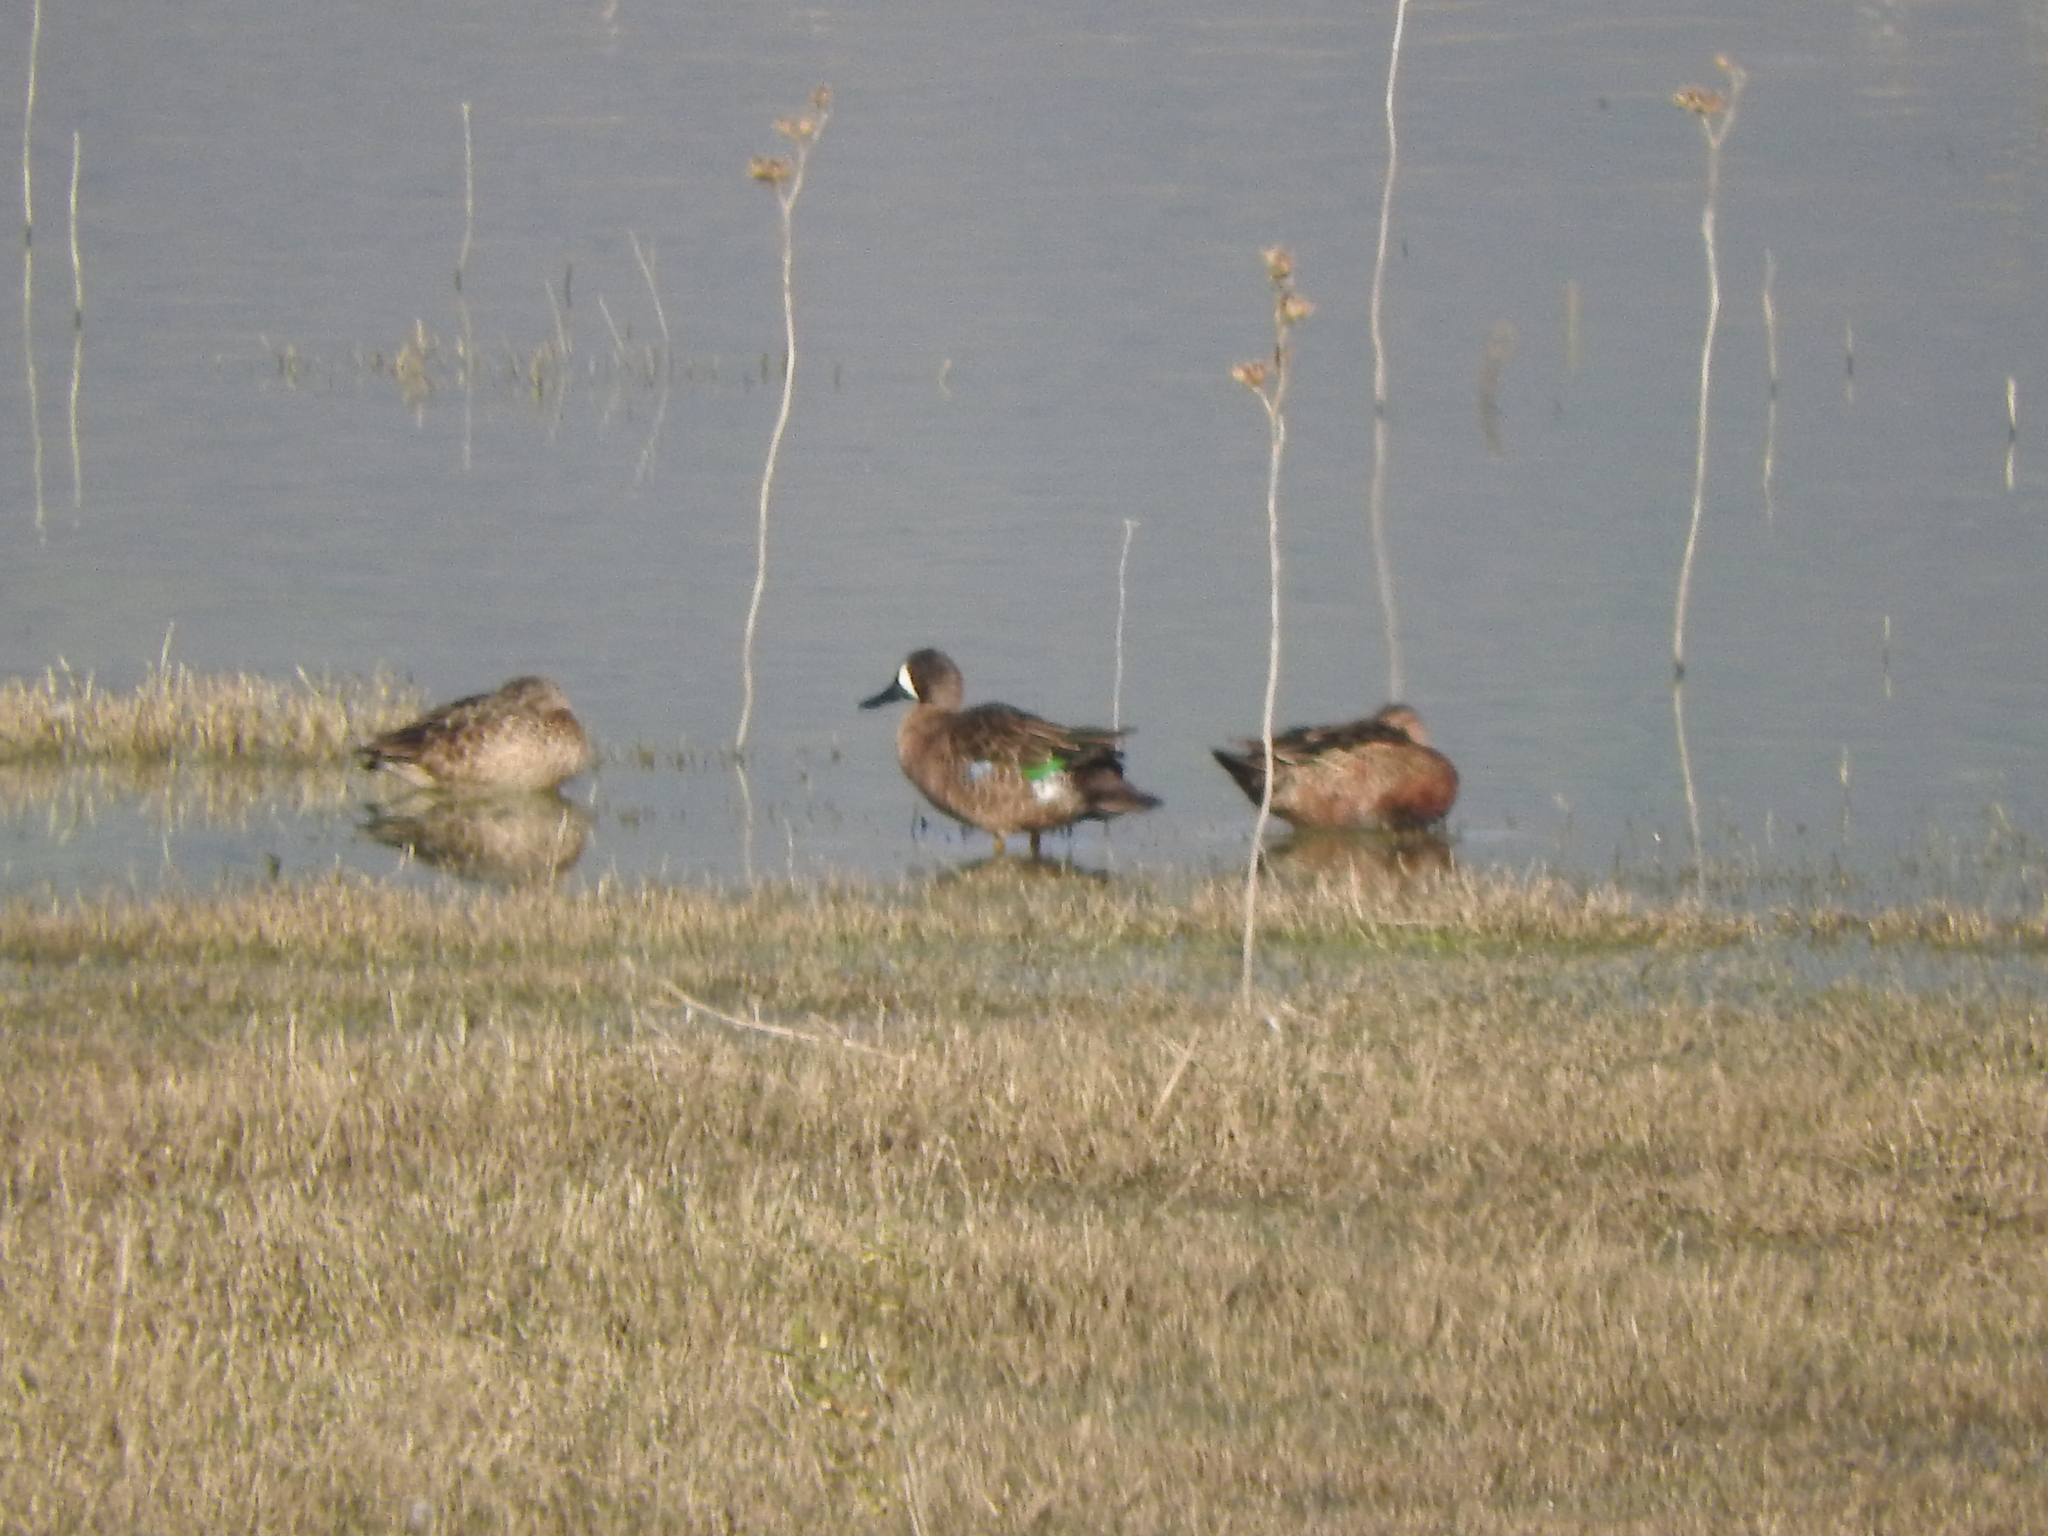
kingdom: Animalia
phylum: Chordata
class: Aves
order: Anseriformes
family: Anatidae
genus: Spatula
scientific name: Spatula discors
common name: Blue-winged teal
